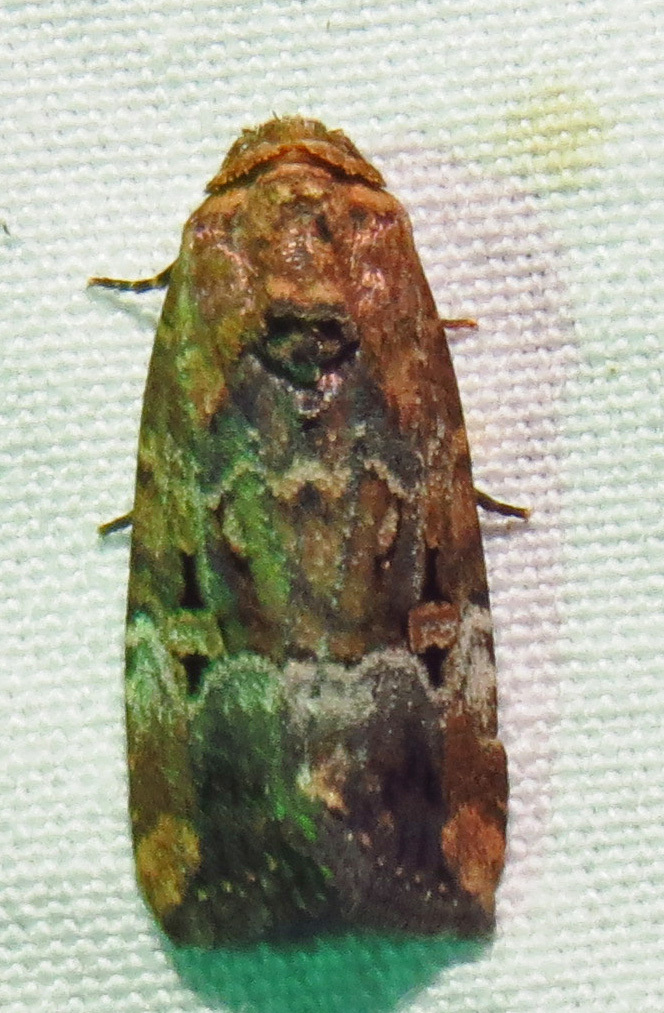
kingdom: Animalia
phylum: Arthropoda
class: Insecta
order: Lepidoptera
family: Noctuidae
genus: Elaphria
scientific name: Elaphria chalcedonia
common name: Chalcedony midget
